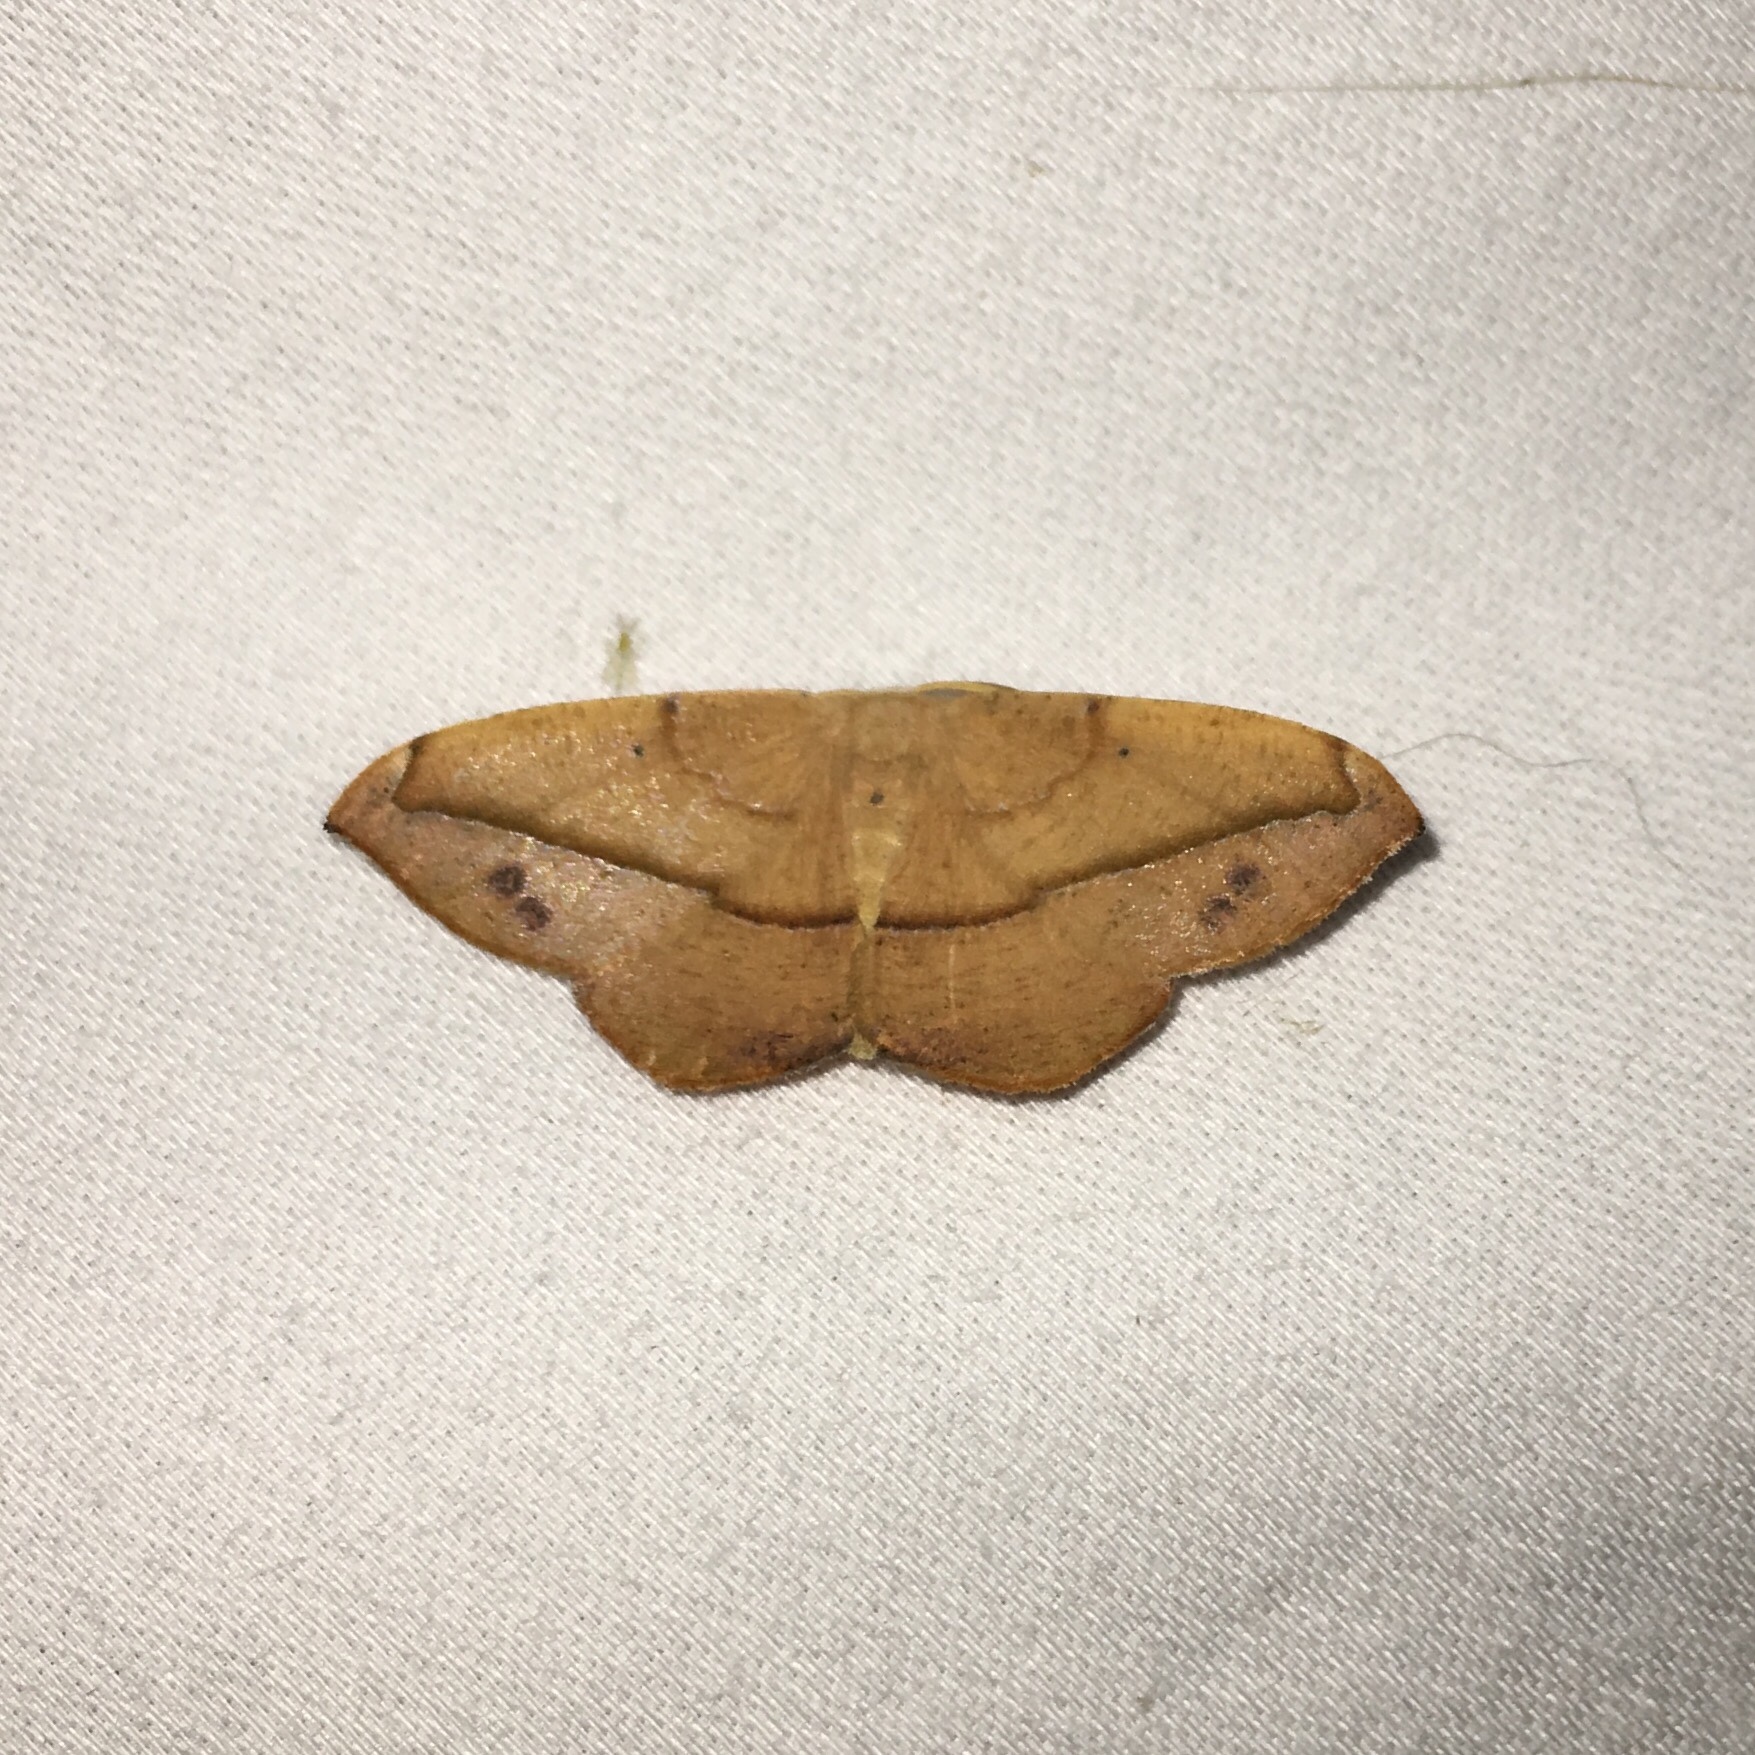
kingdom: Animalia
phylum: Arthropoda
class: Insecta
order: Lepidoptera
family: Geometridae
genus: Patalene
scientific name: Patalene olyzonaria
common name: Juniper geometer moth
